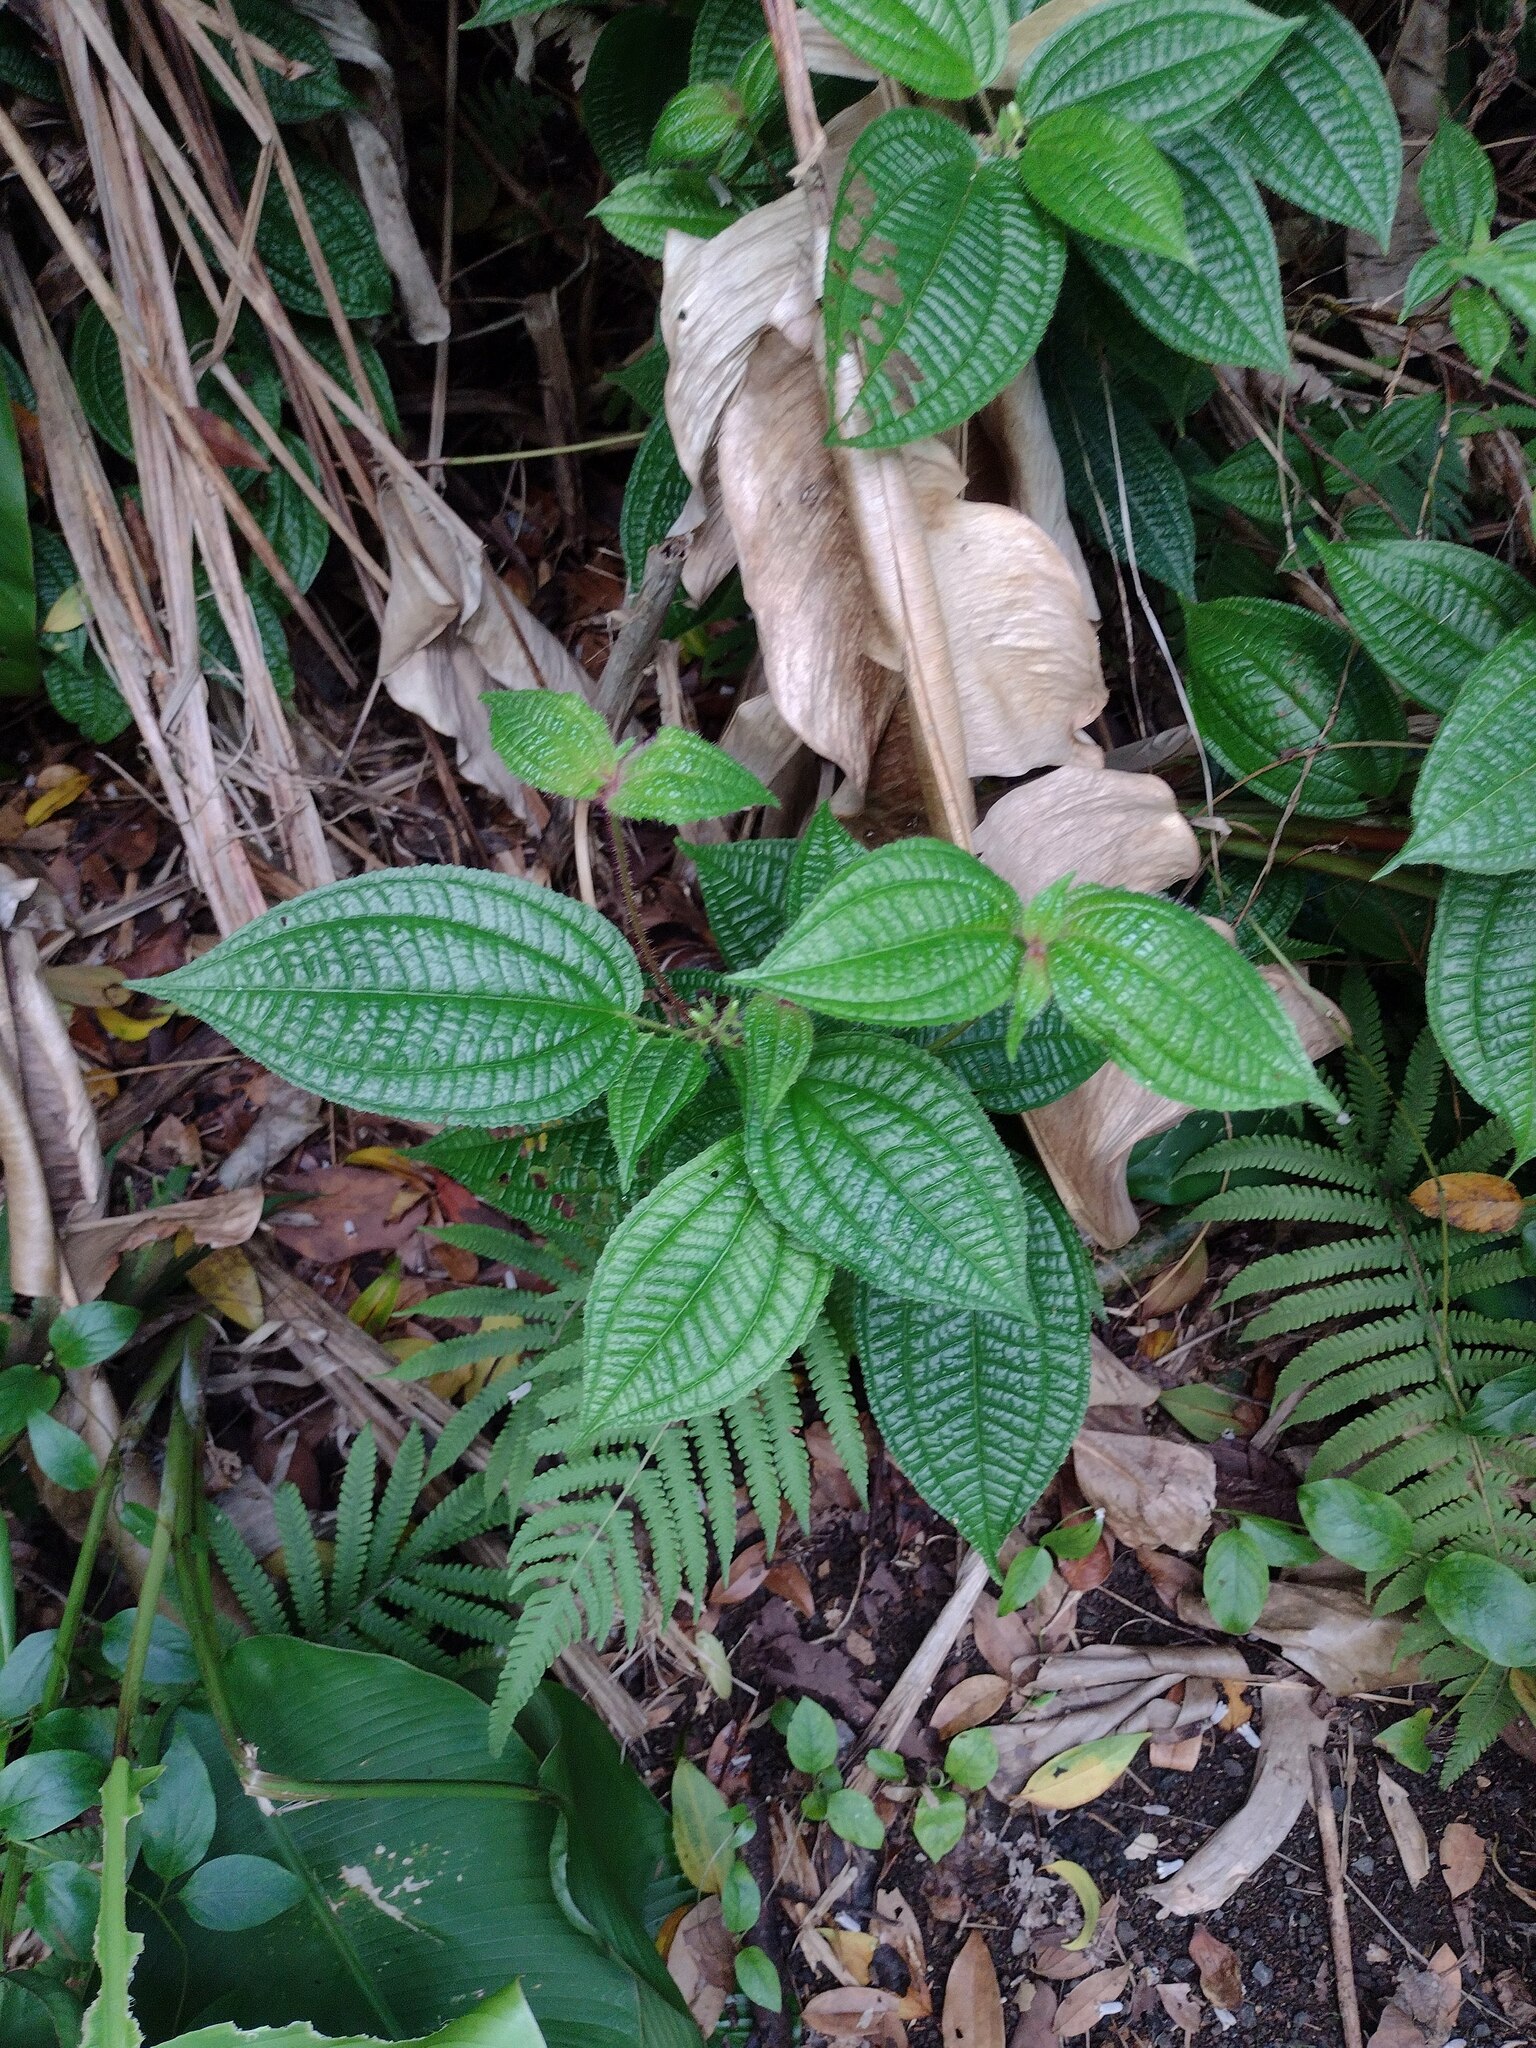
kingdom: Plantae
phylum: Tracheophyta
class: Magnoliopsida
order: Myrtales
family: Melastomataceae
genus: Miconia
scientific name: Miconia crenata
